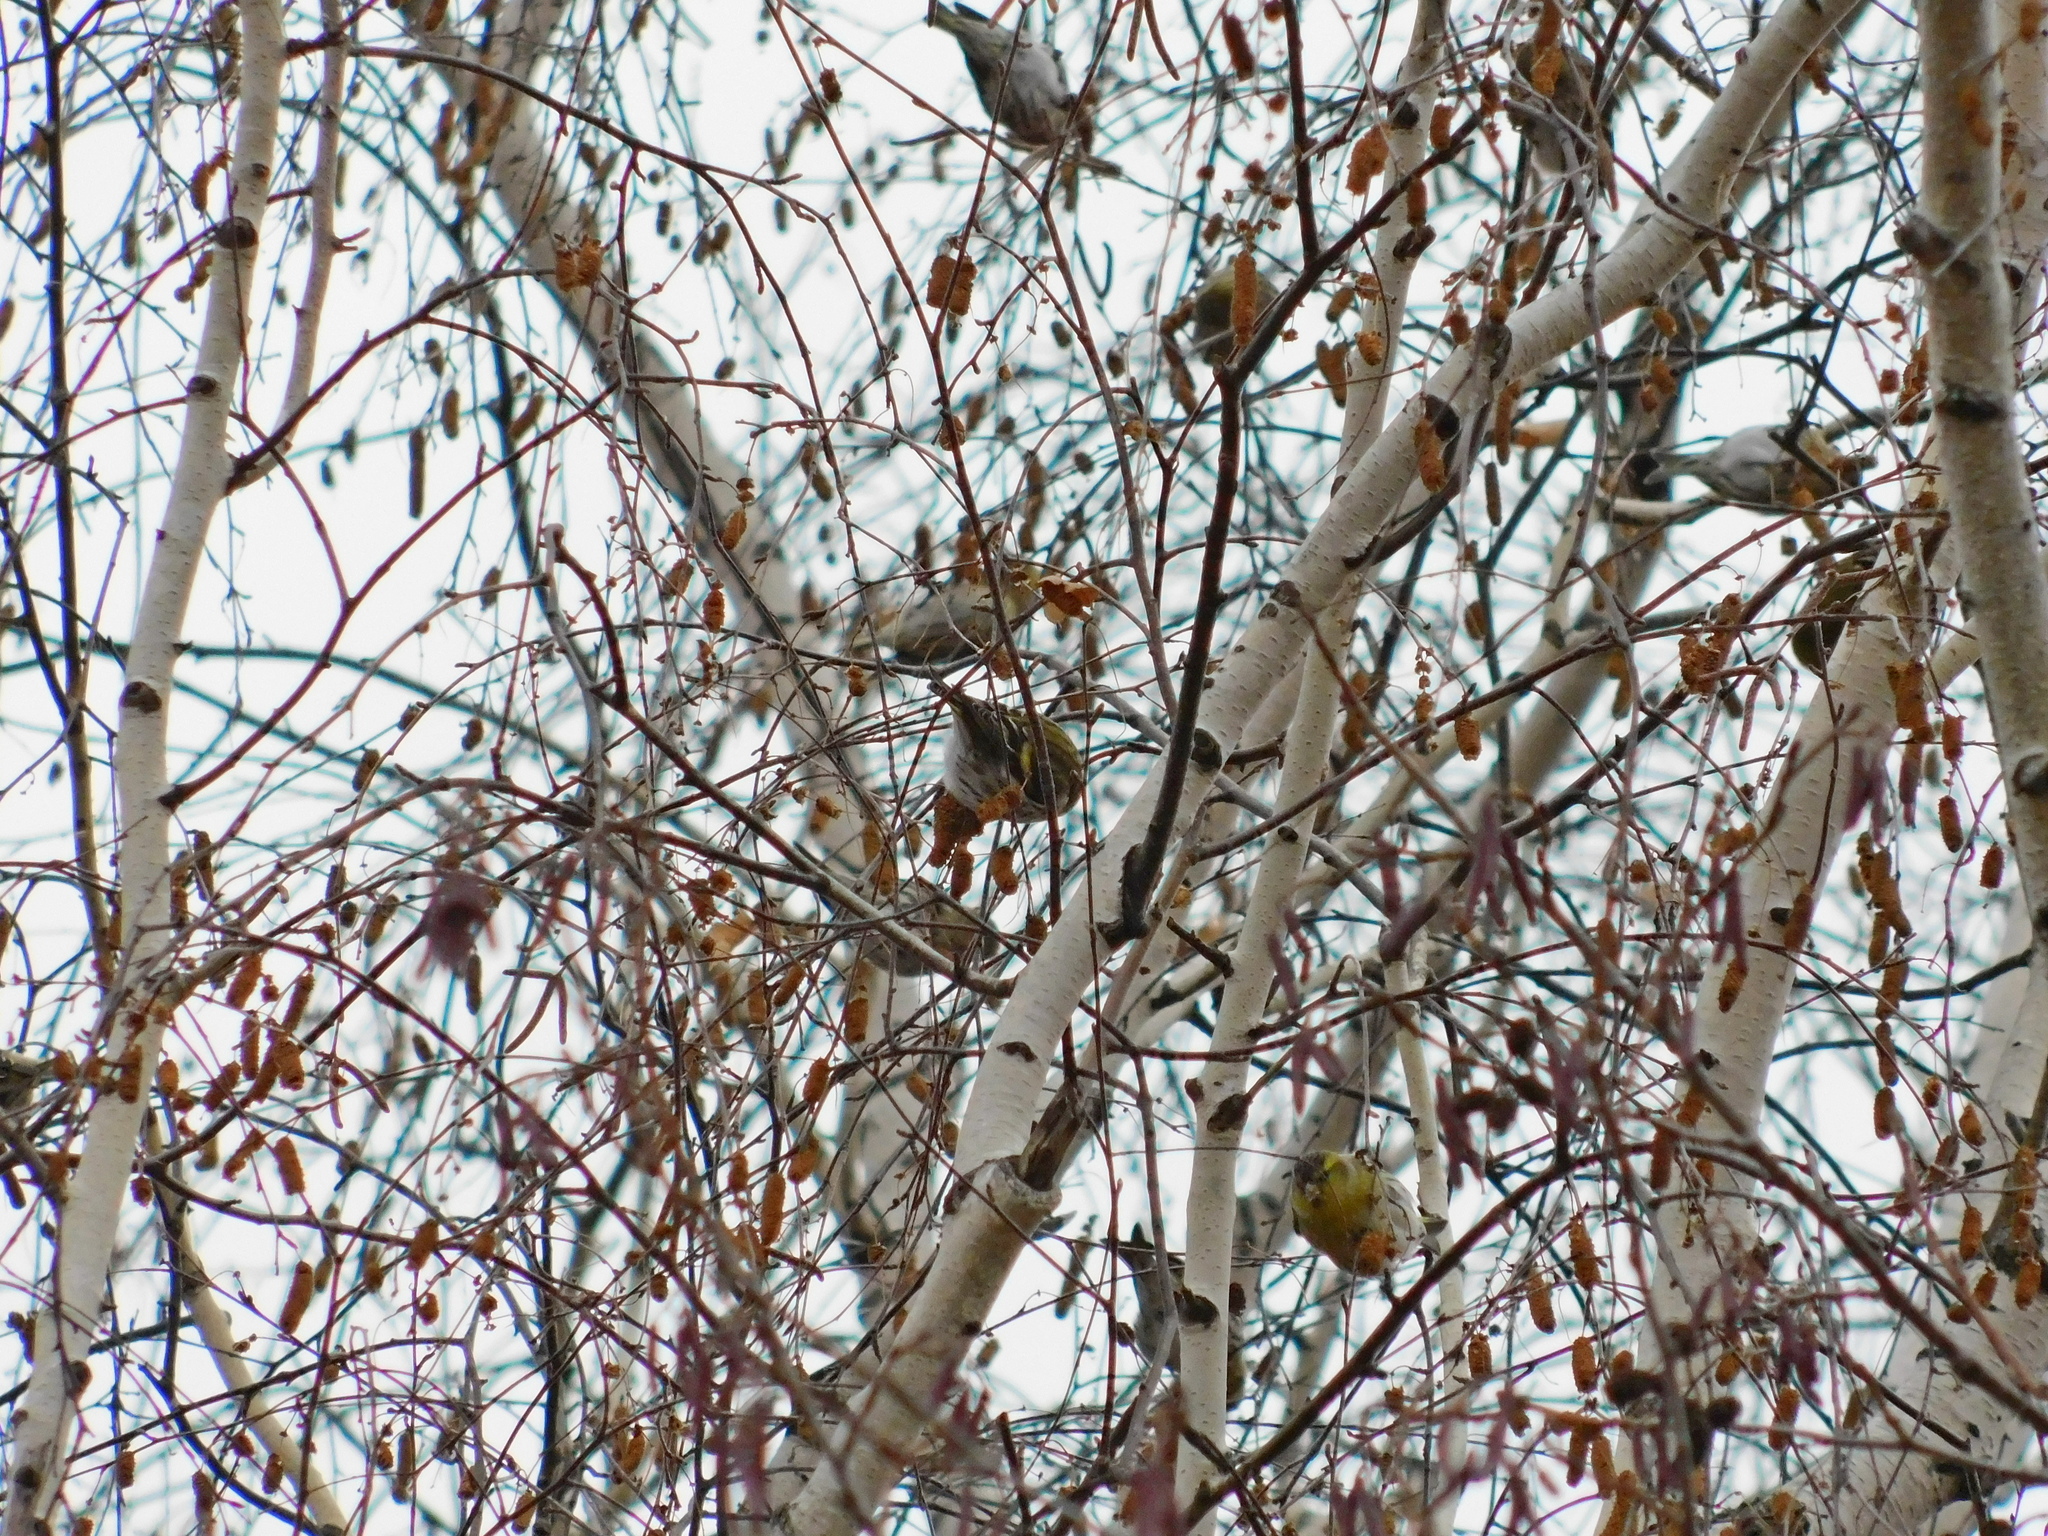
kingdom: Animalia
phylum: Chordata
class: Aves
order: Passeriformes
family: Fringillidae
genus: Spinus
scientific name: Spinus spinus
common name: Eurasian siskin
